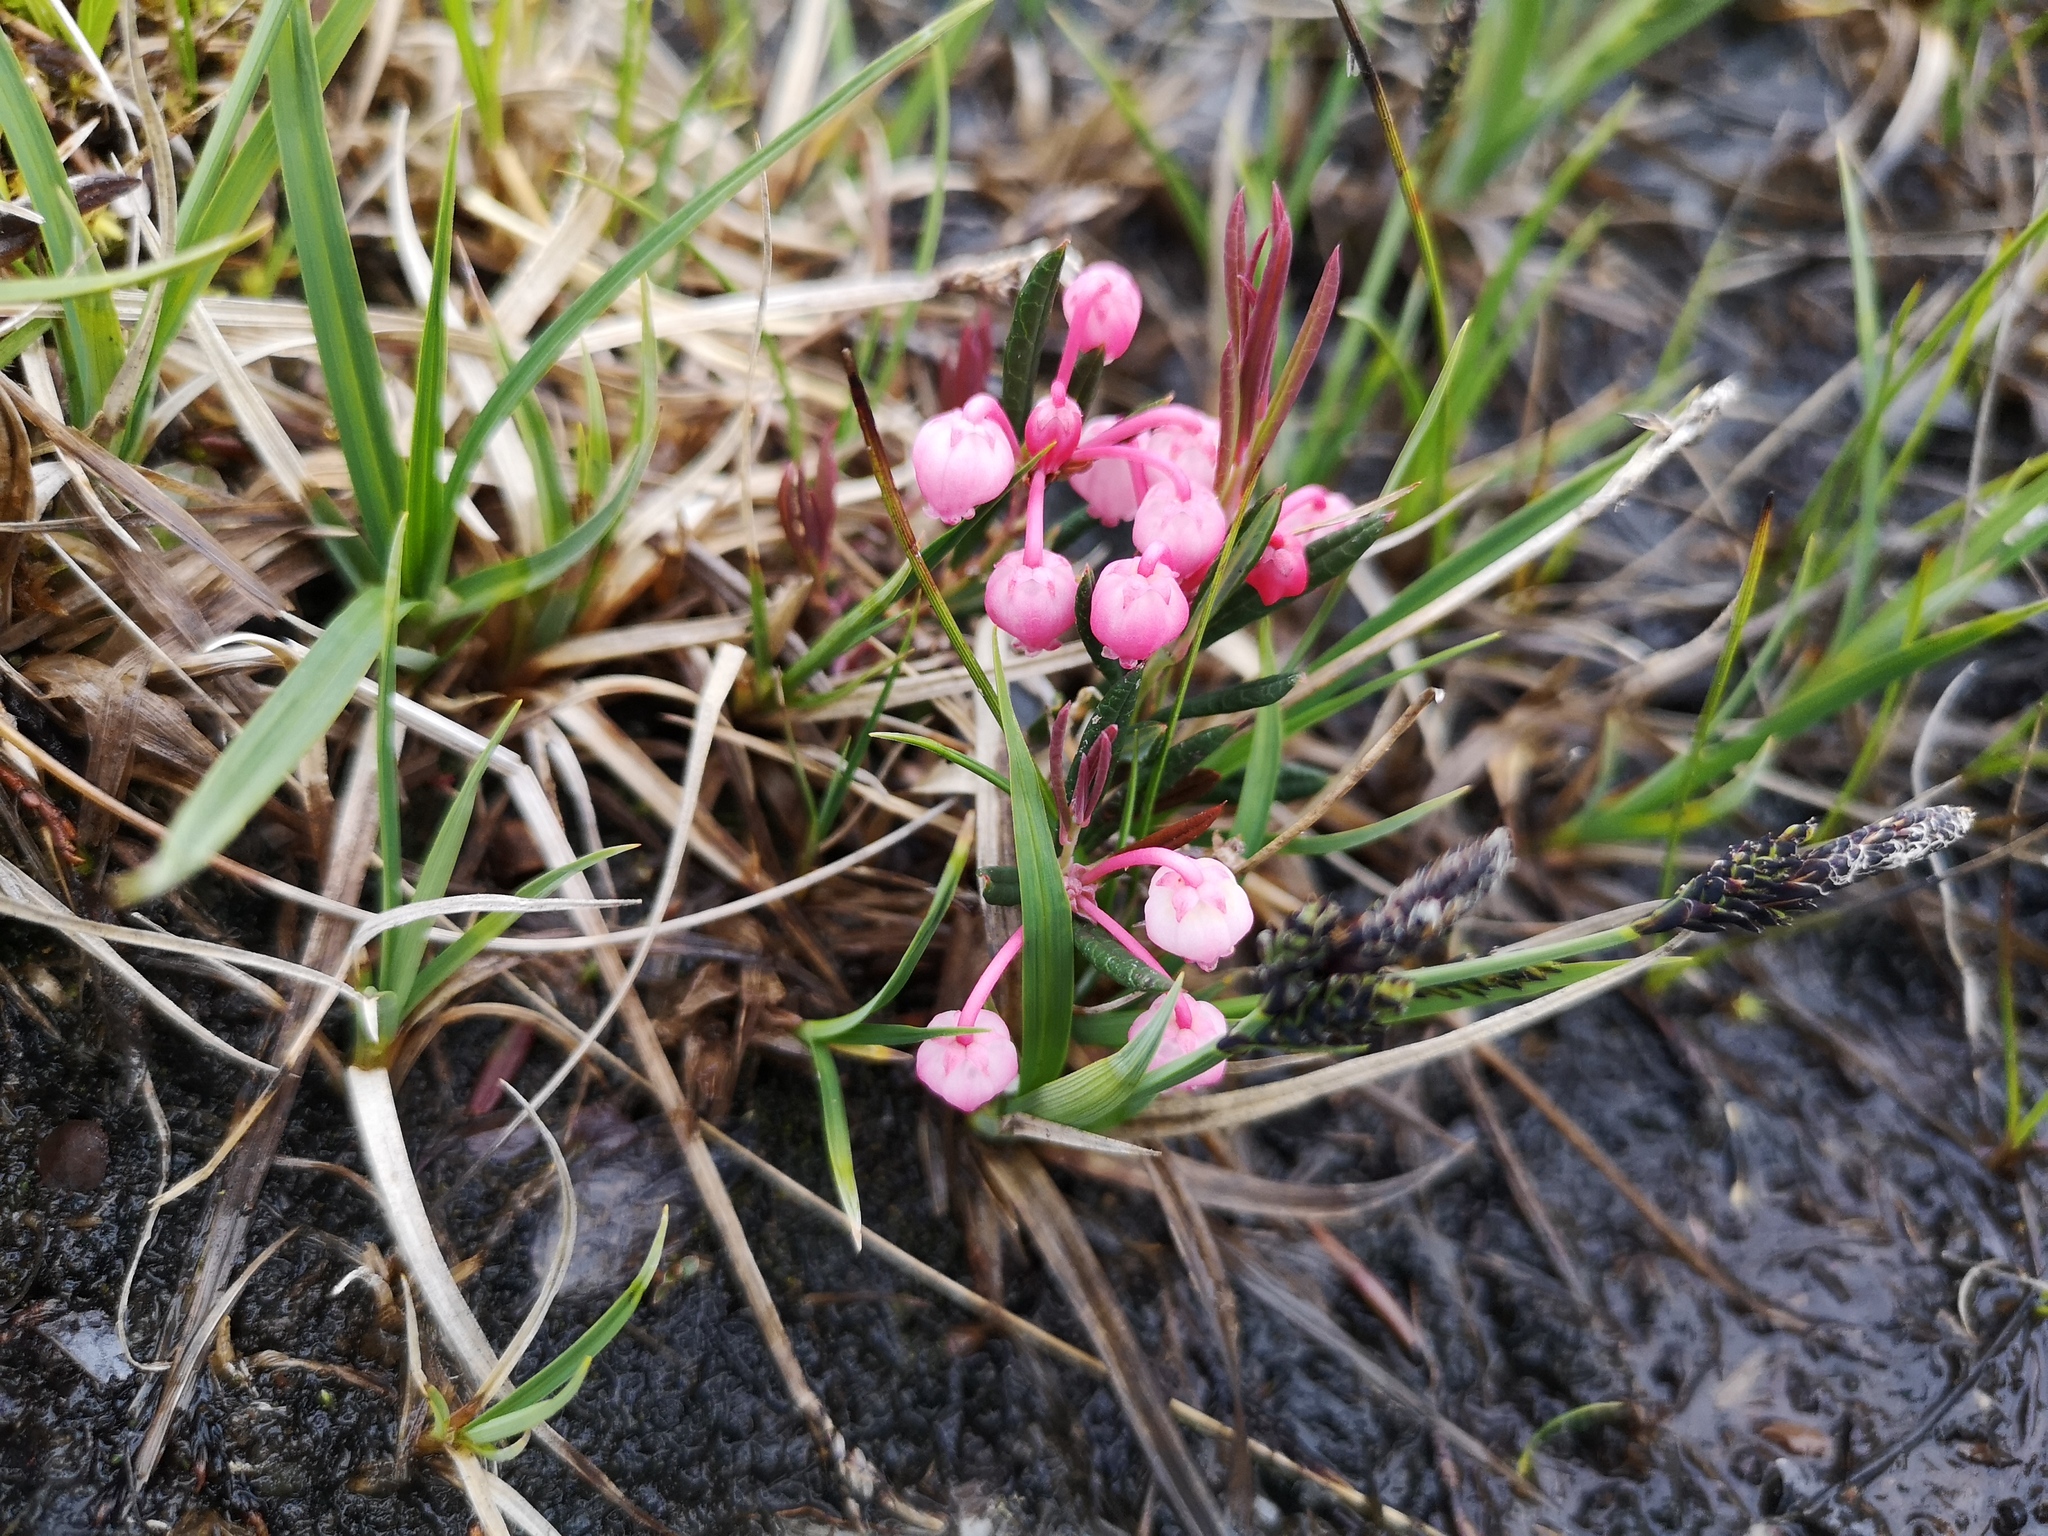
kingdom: Plantae
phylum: Tracheophyta
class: Magnoliopsida
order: Ericales
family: Ericaceae
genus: Andromeda
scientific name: Andromeda polifolia
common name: Bog-rosemary
